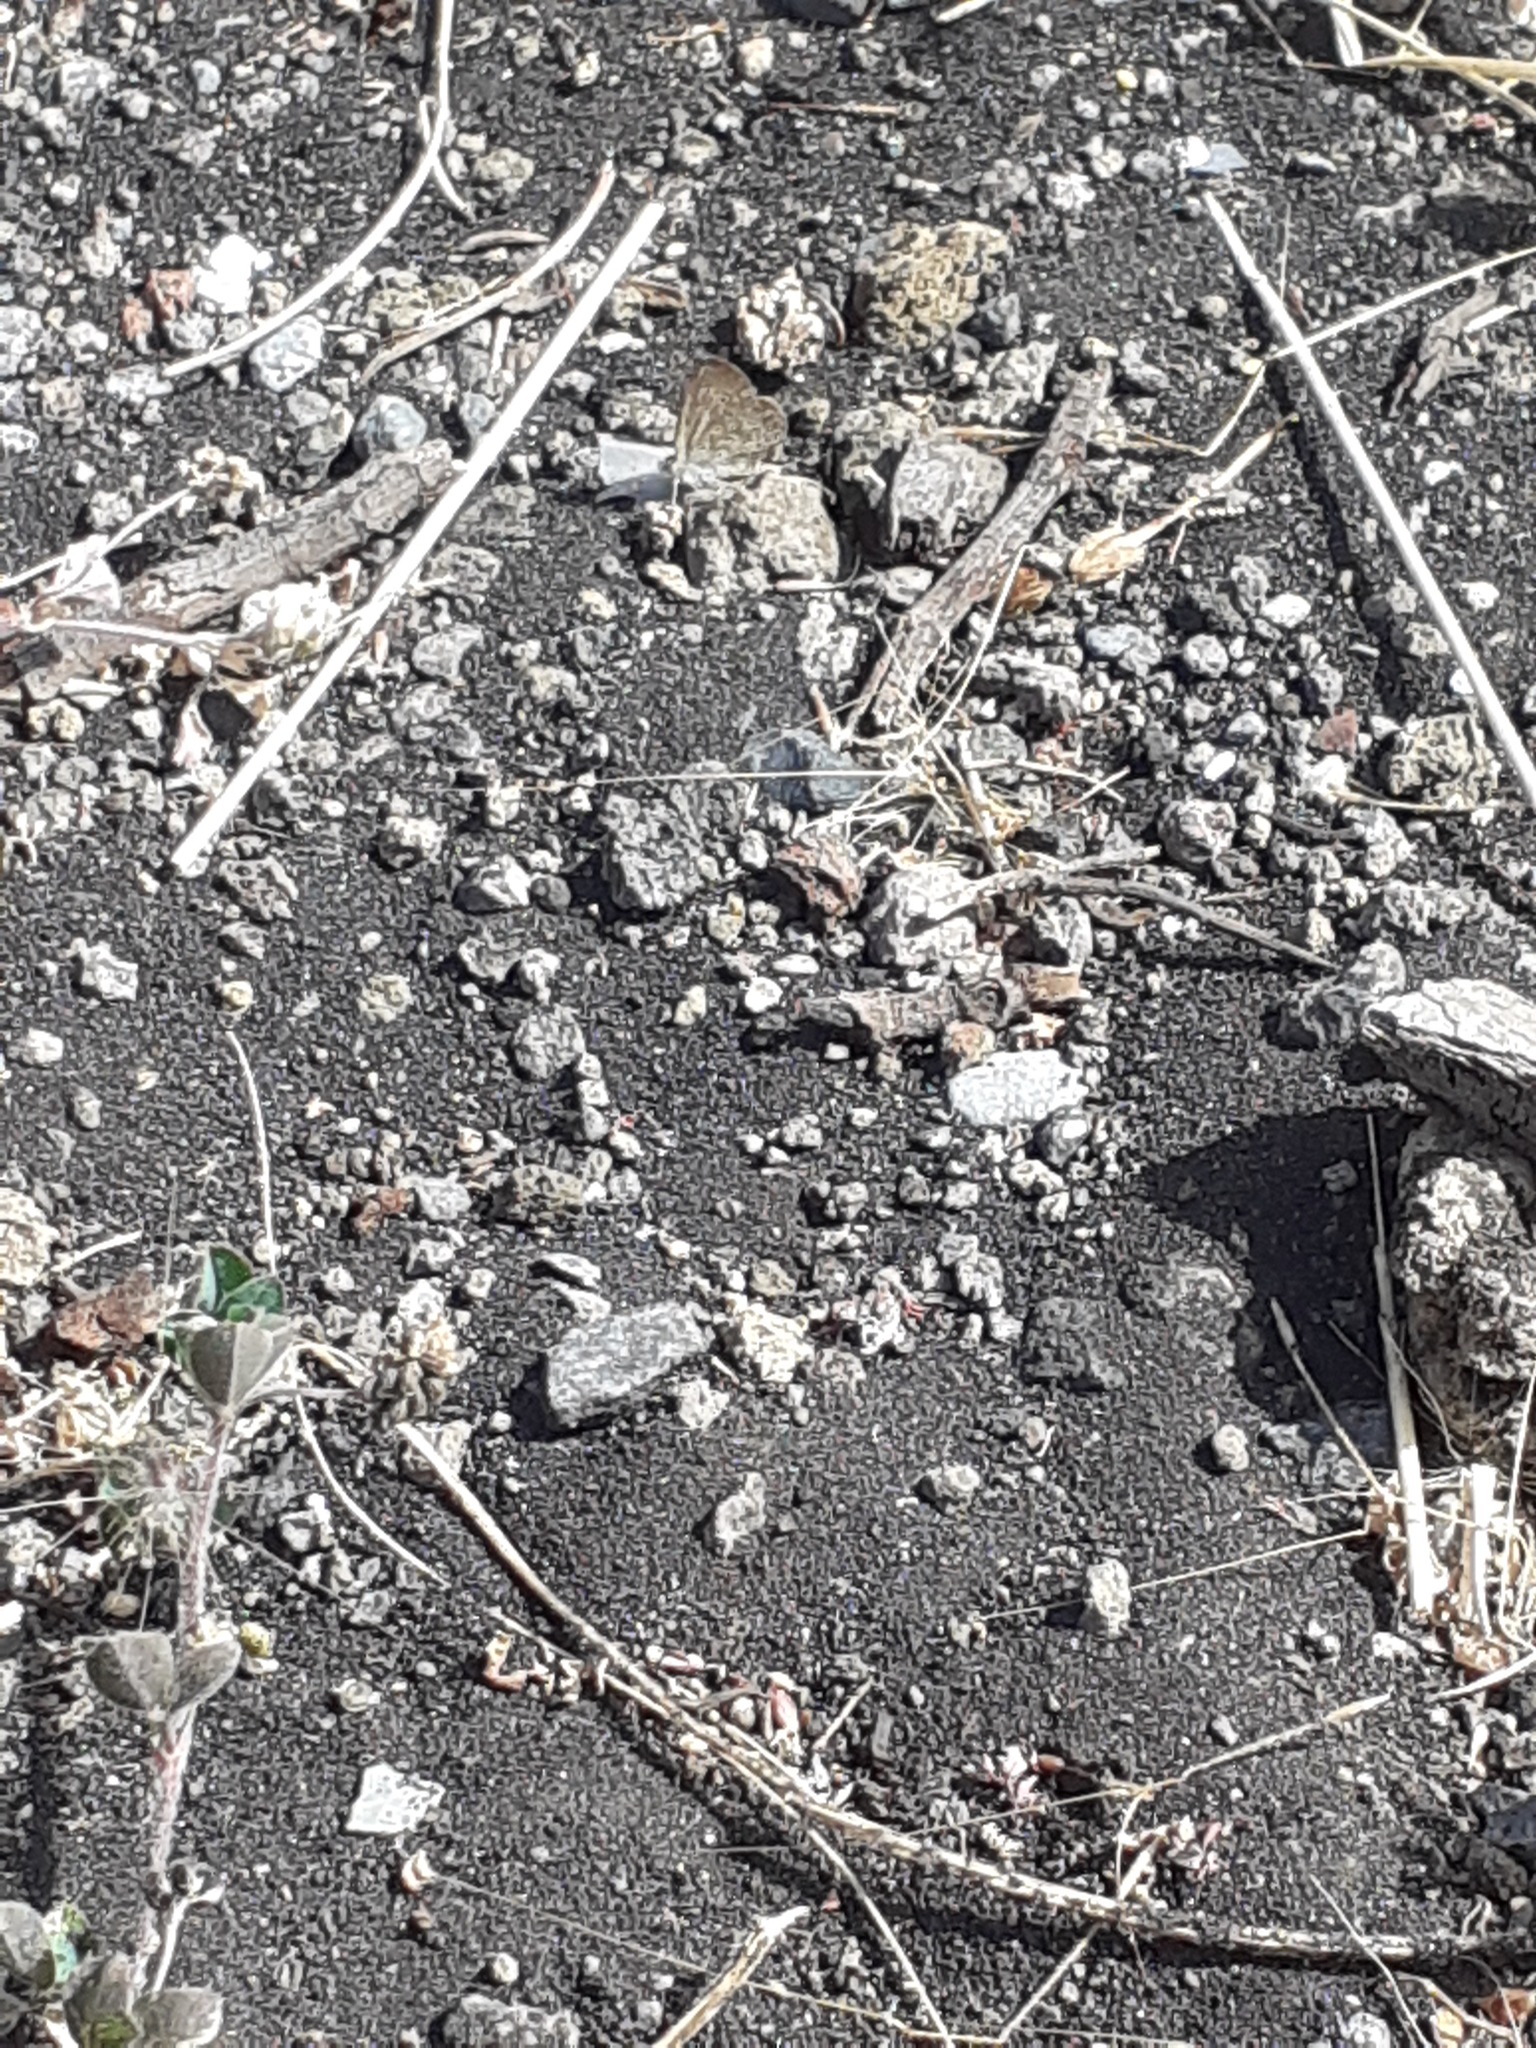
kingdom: Animalia
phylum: Arthropoda
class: Insecta
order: Lepidoptera
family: Lycaenidae
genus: Zizeeria
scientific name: Zizeeria knysna
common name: African grass blue
